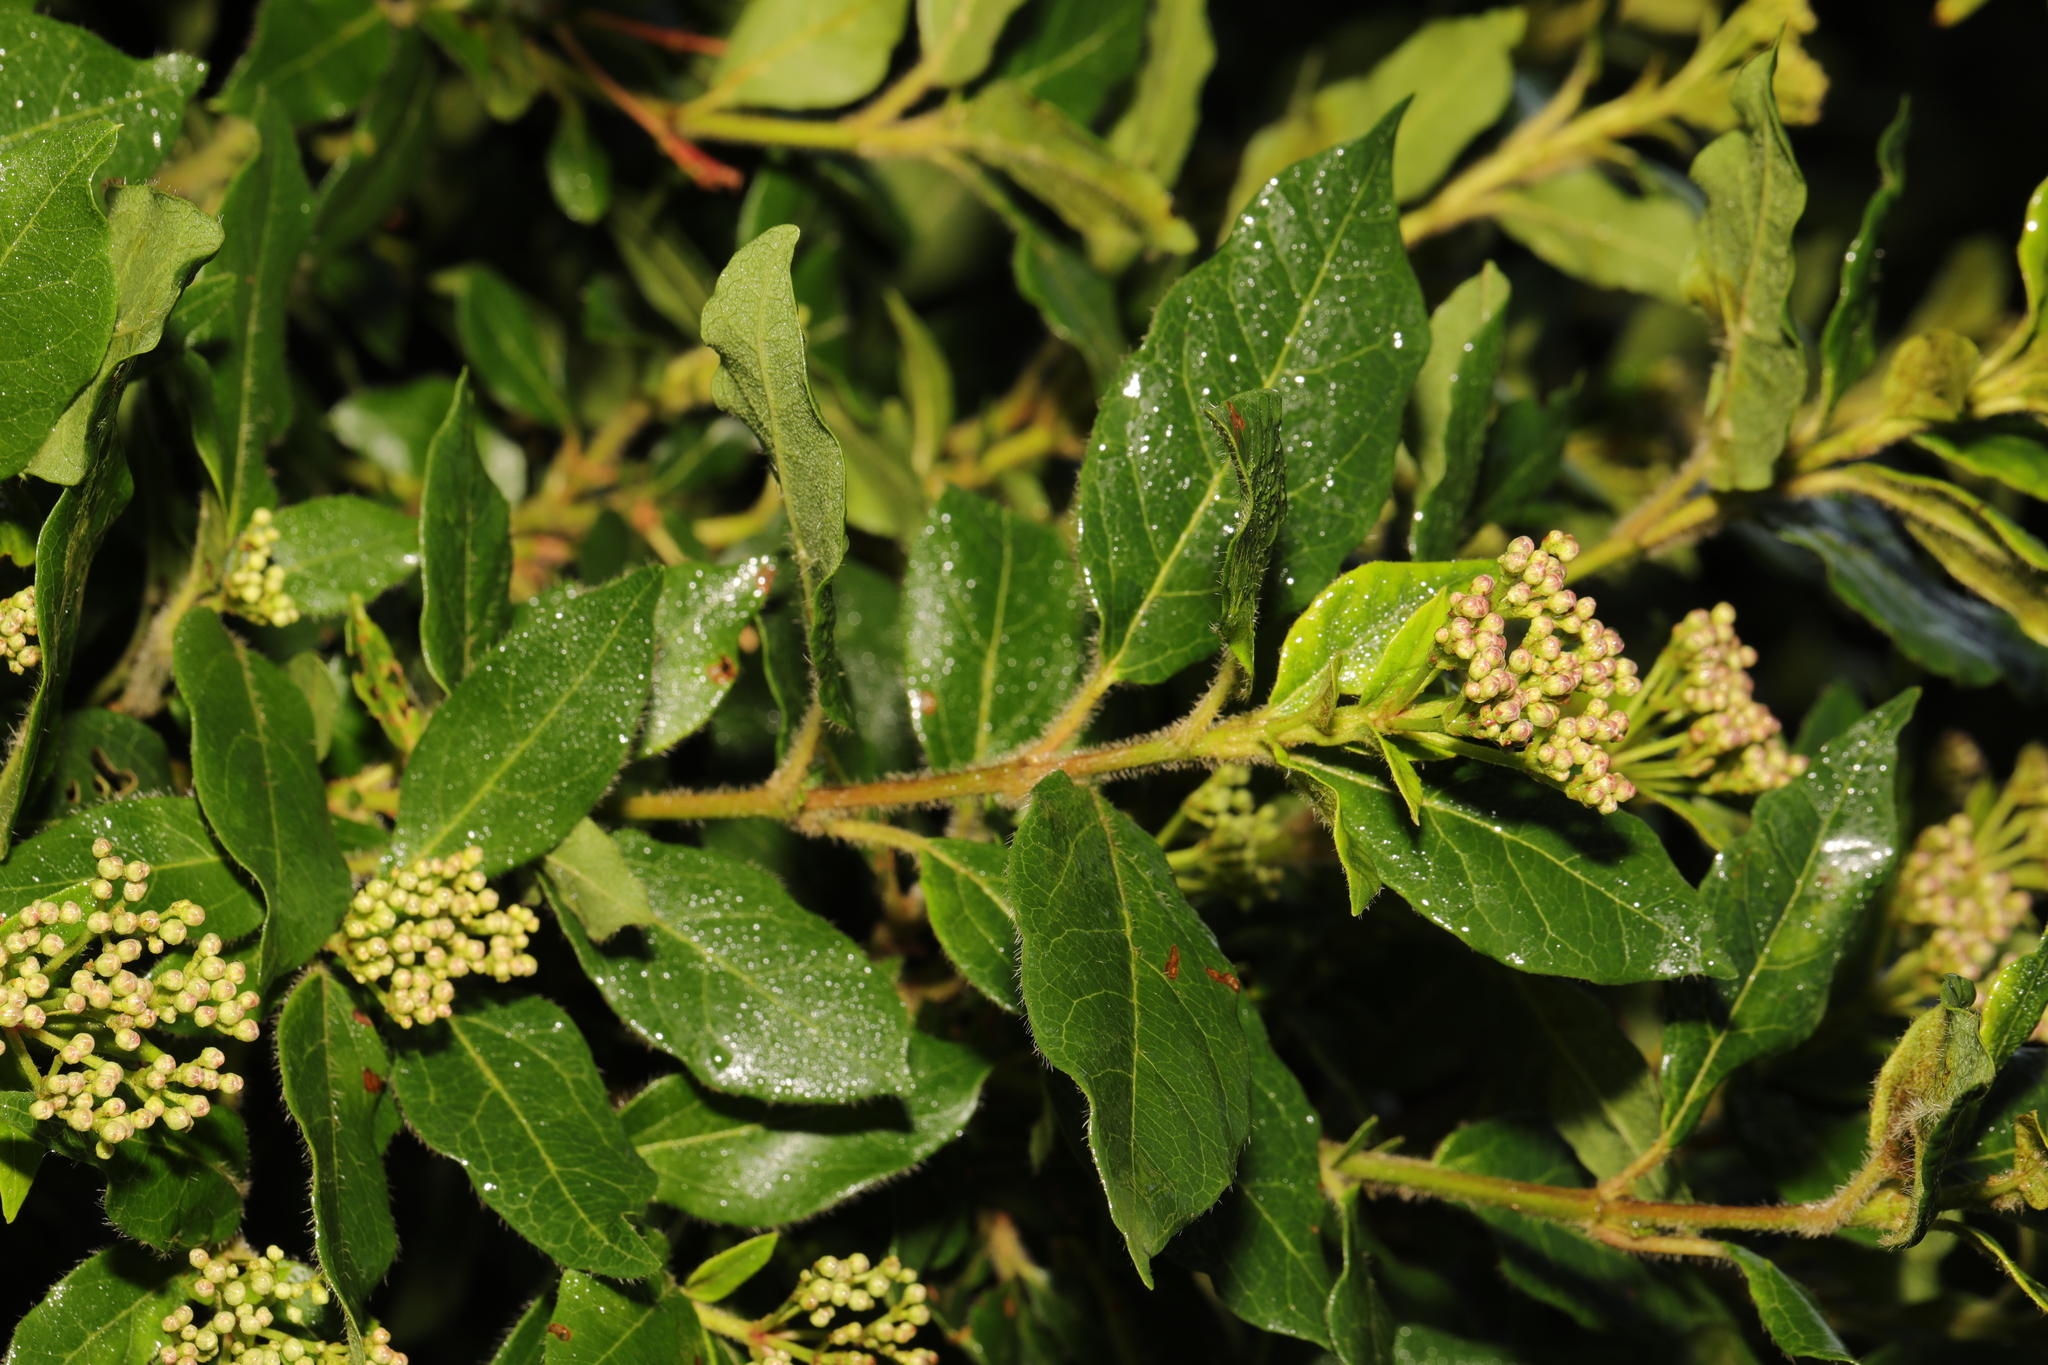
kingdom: Plantae
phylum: Tracheophyta
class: Magnoliopsida
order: Dipsacales
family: Viburnaceae
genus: Viburnum
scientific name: Viburnum tinus
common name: Laurustinus
